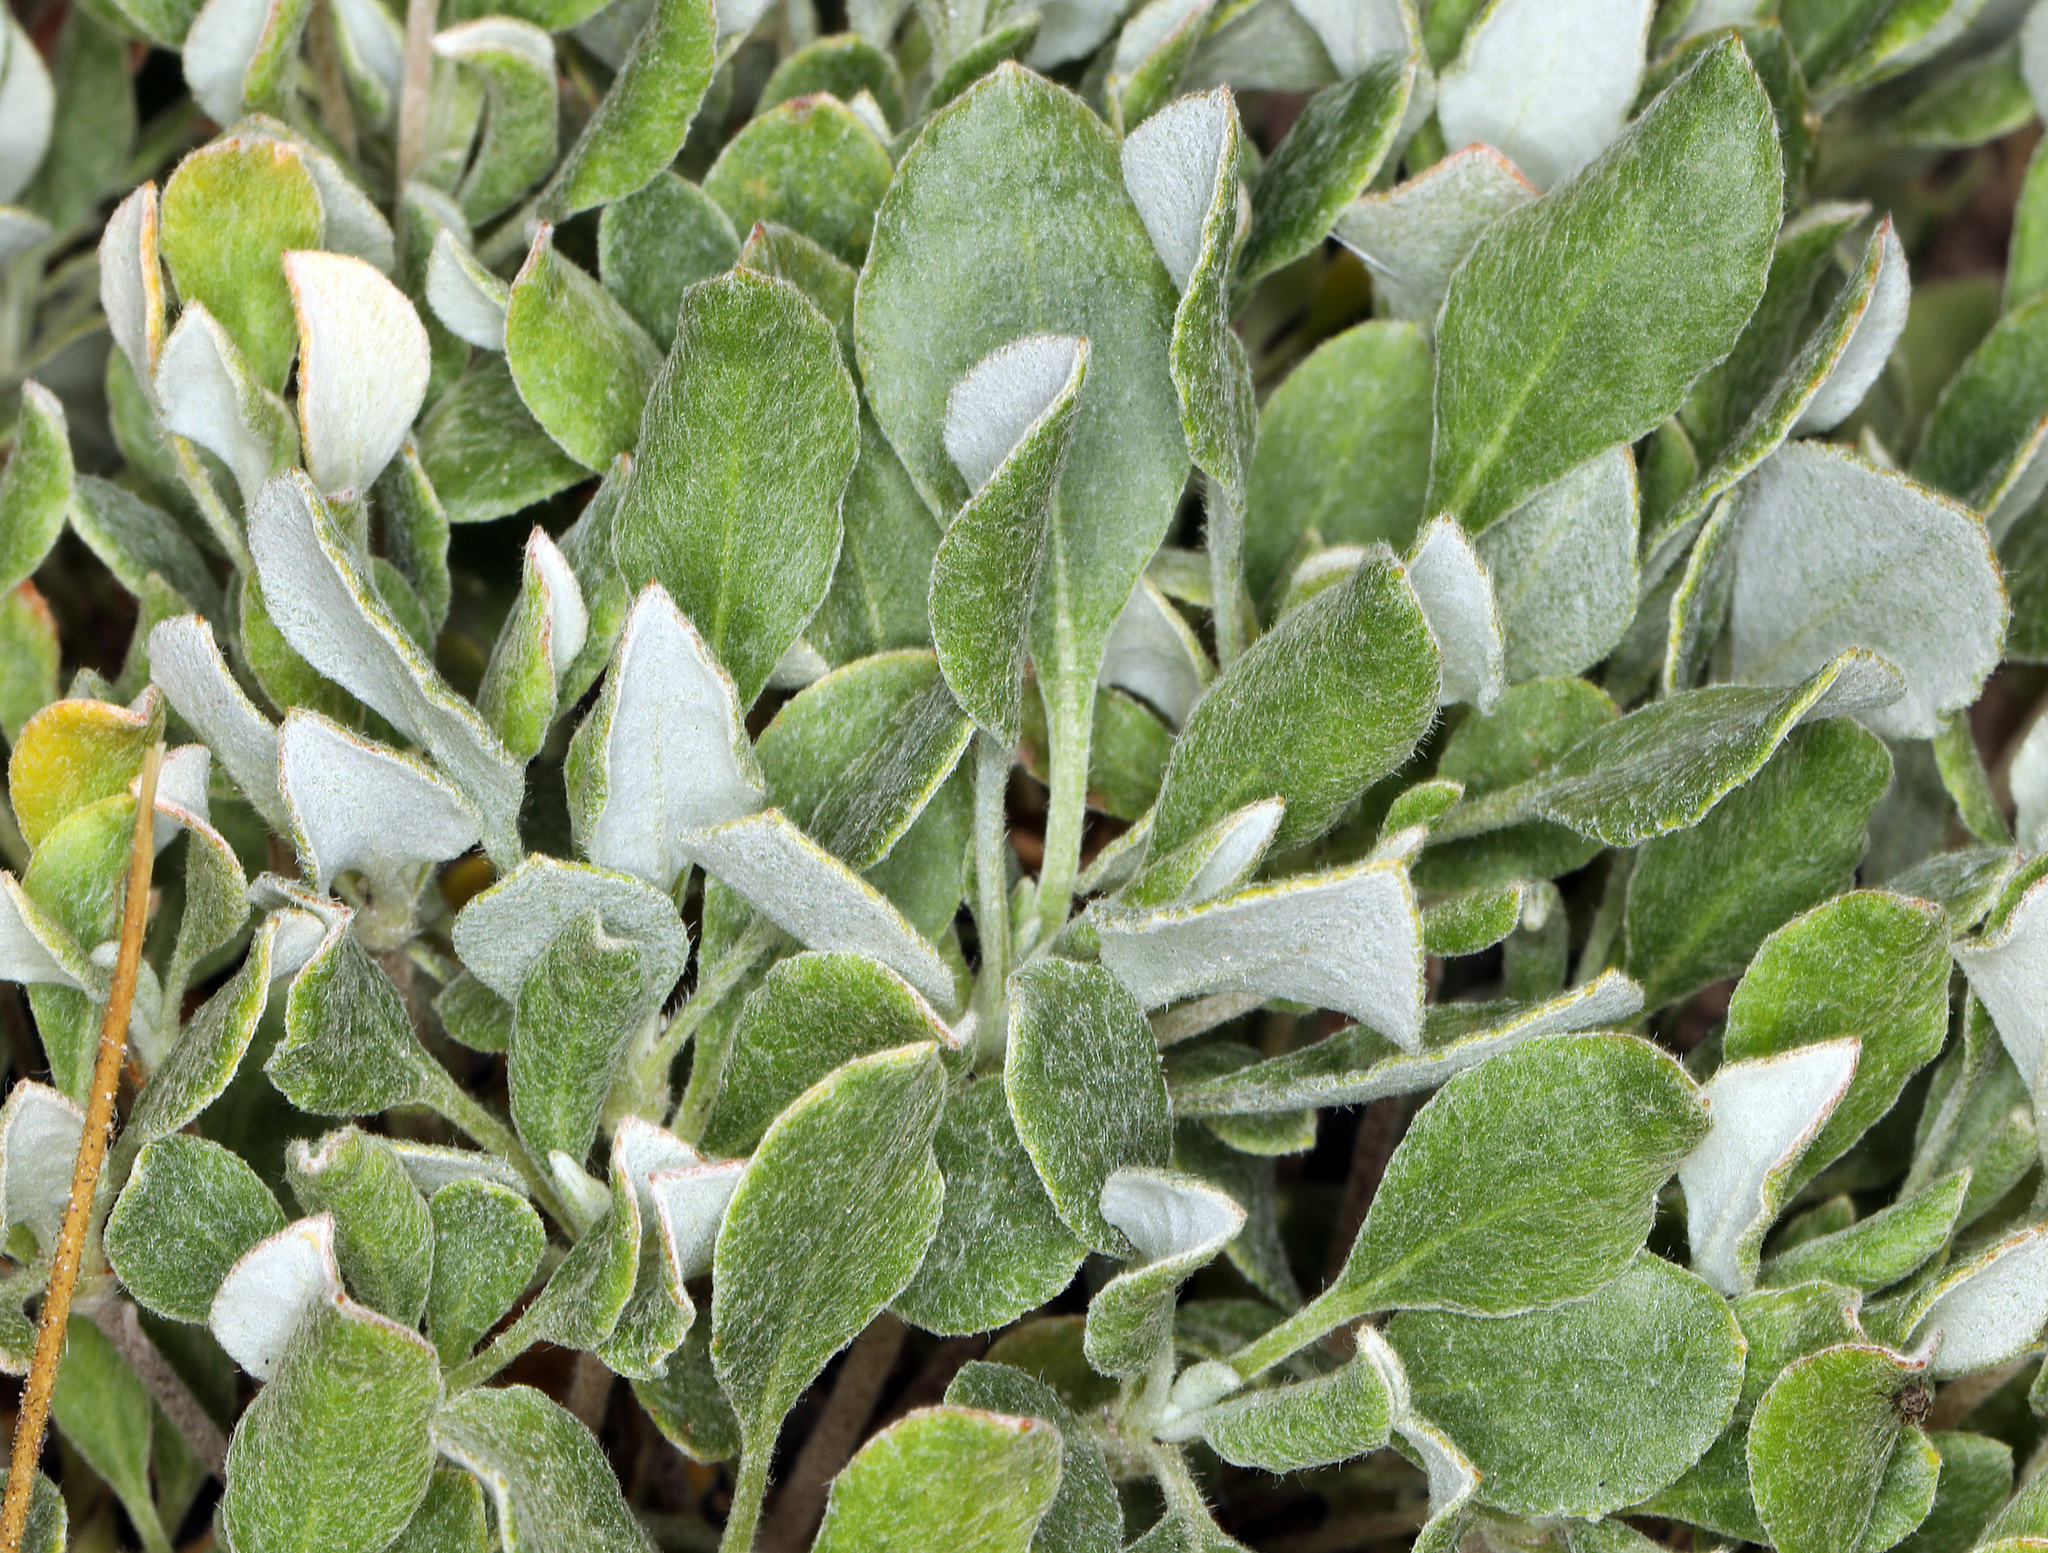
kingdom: Plantae
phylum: Tracheophyta
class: Magnoliopsida
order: Caryophyllales
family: Polygonaceae
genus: Eriogonum
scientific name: Eriogonum umbellatum
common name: Sulfur-buckwheat
